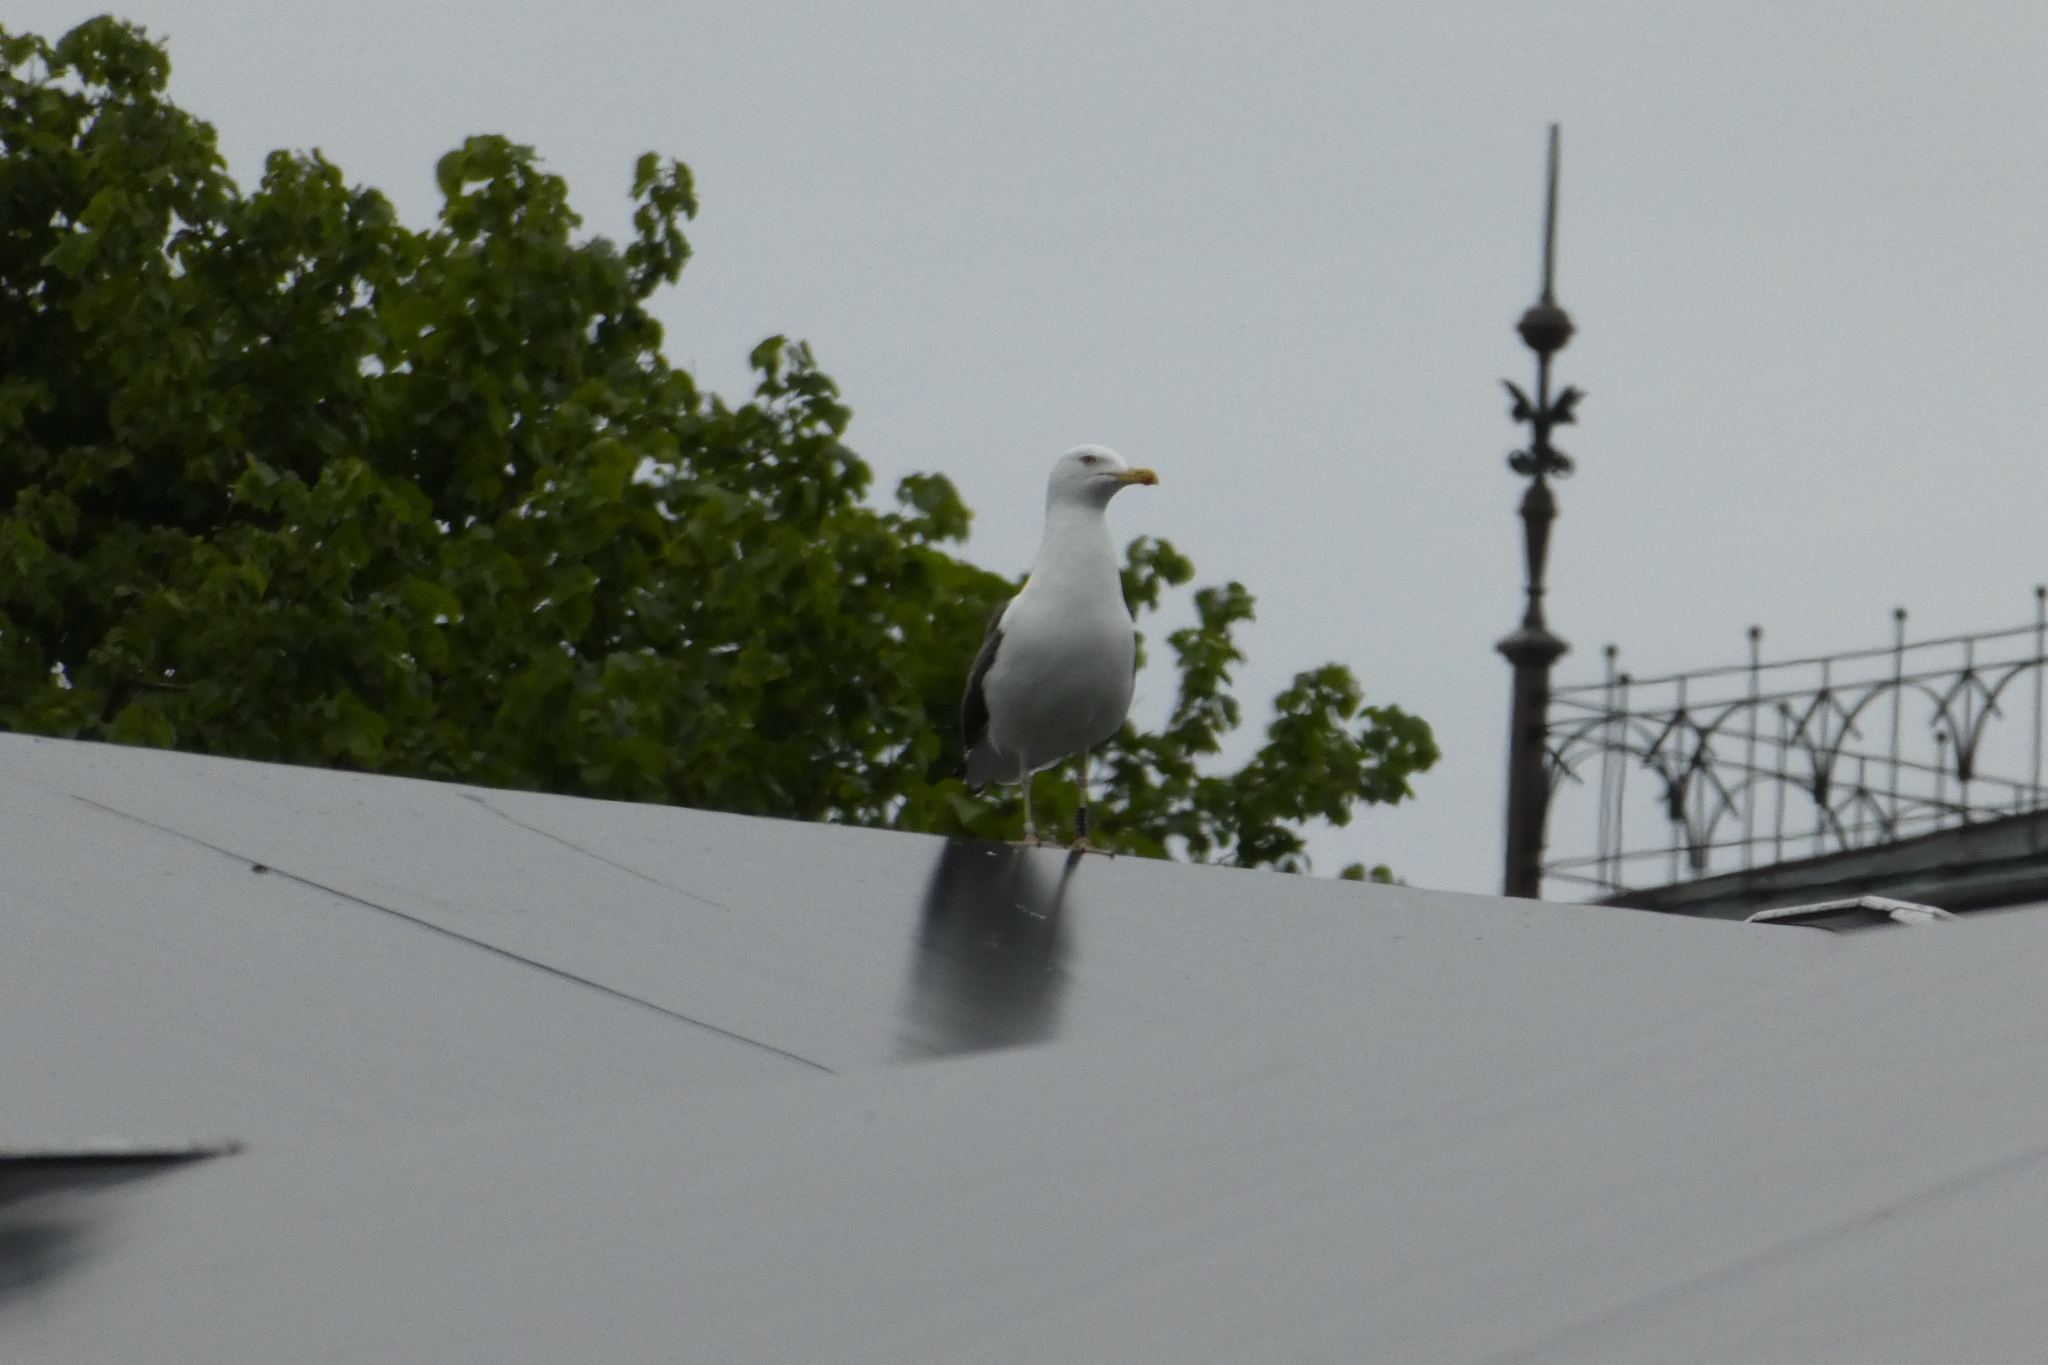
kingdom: Animalia
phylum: Chordata
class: Aves
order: Charadriiformes
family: Laridae
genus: Larus
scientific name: Larus fuscus
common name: Lesser black-backed gull
